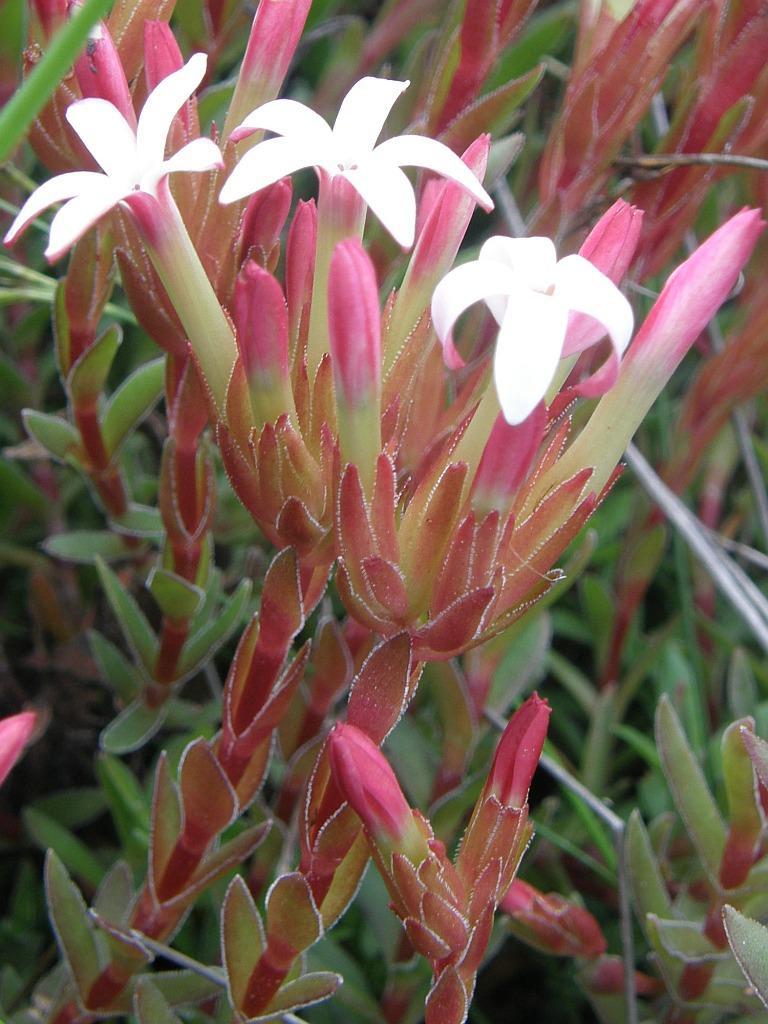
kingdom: Plantae
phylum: Tracheophyta
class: Magnoliopsida
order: Saxifragales
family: Crassulaceae
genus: Crassula
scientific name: Crassula obtusa
